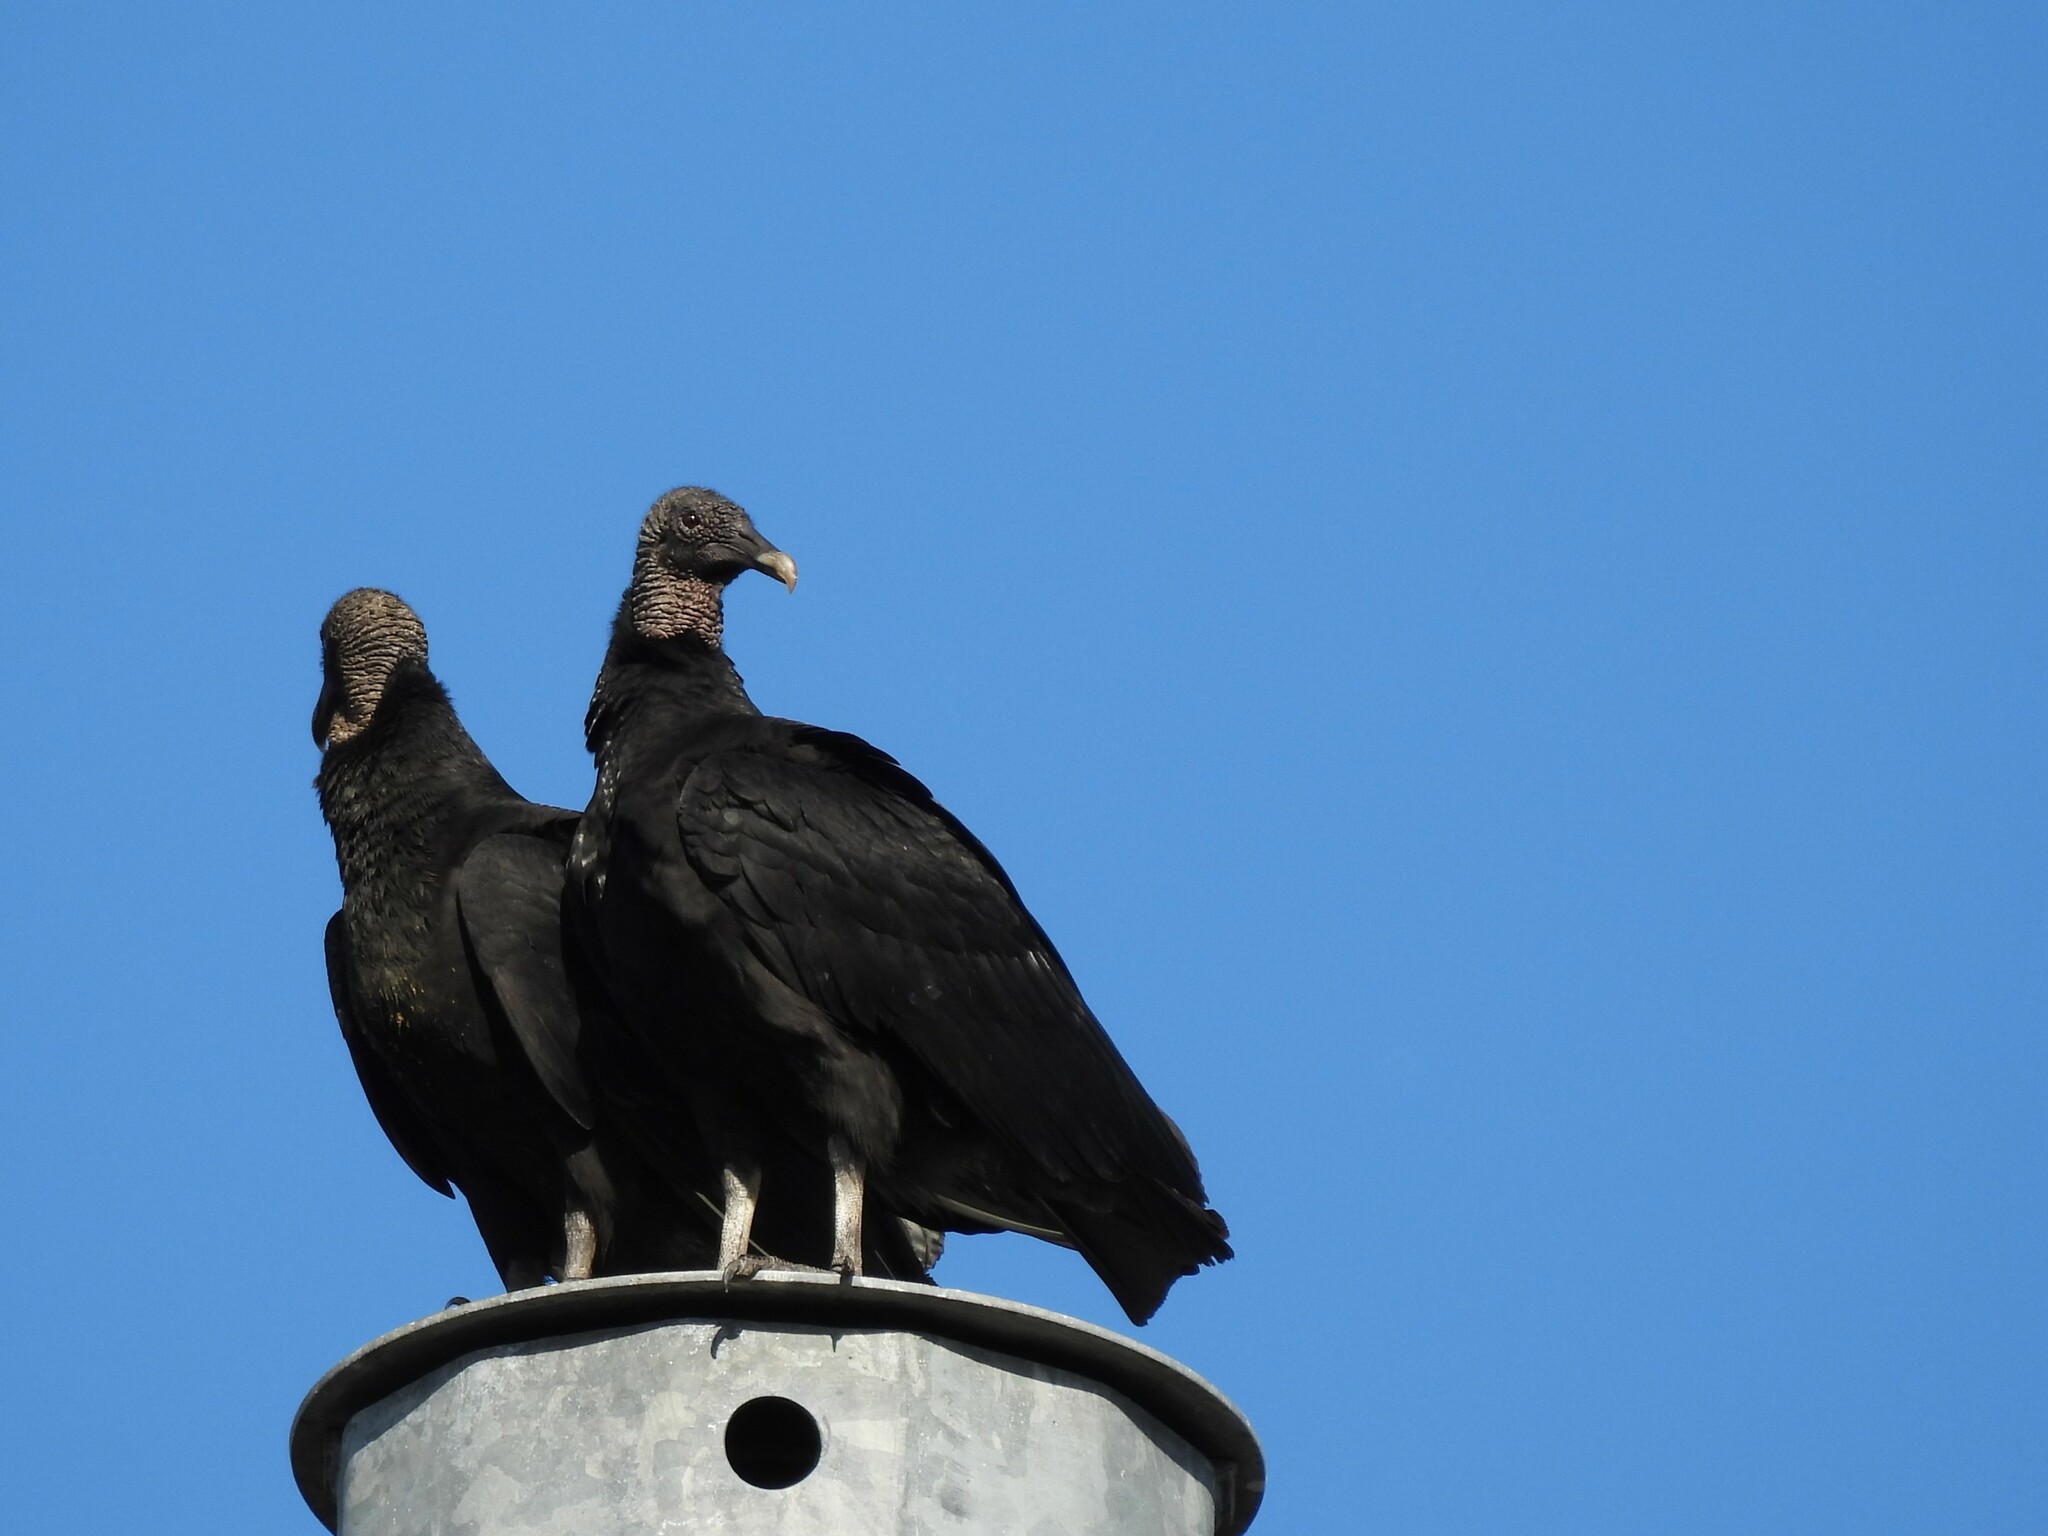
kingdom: Animalia
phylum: Chordata
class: Aves
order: Accipitriformes
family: Cathartidae
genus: Coragyps
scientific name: Coragyps atratus
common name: Black vulture
